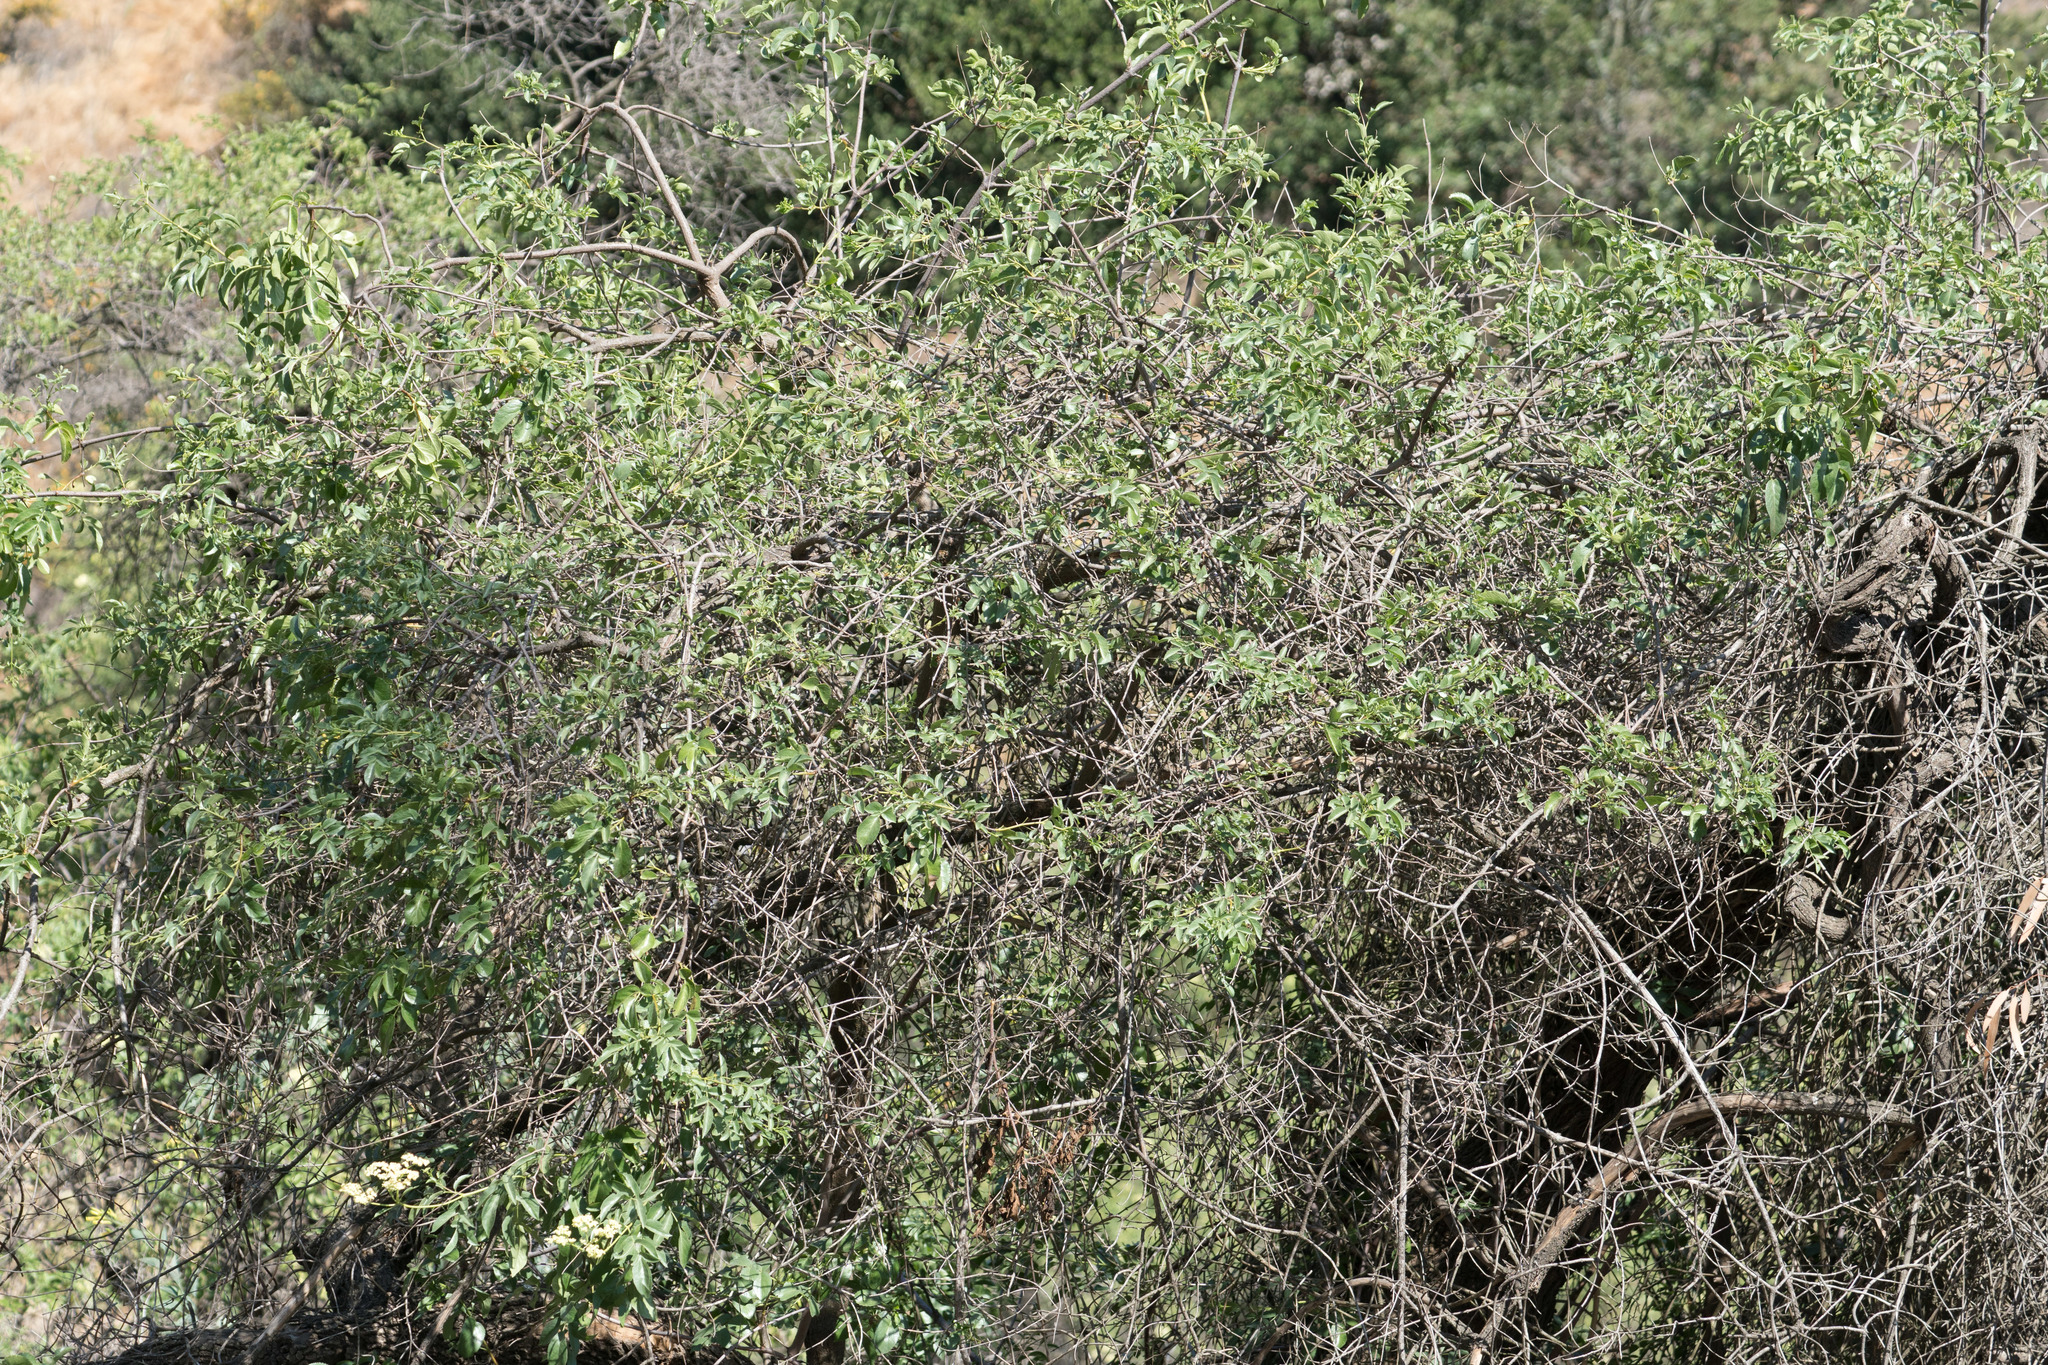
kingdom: Plantae
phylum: Tracheophyta
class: Magnoliopsida
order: Dipsacales
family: Viburnaceae
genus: Sambucus
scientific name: Sambucus cerulea
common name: Blue elder
